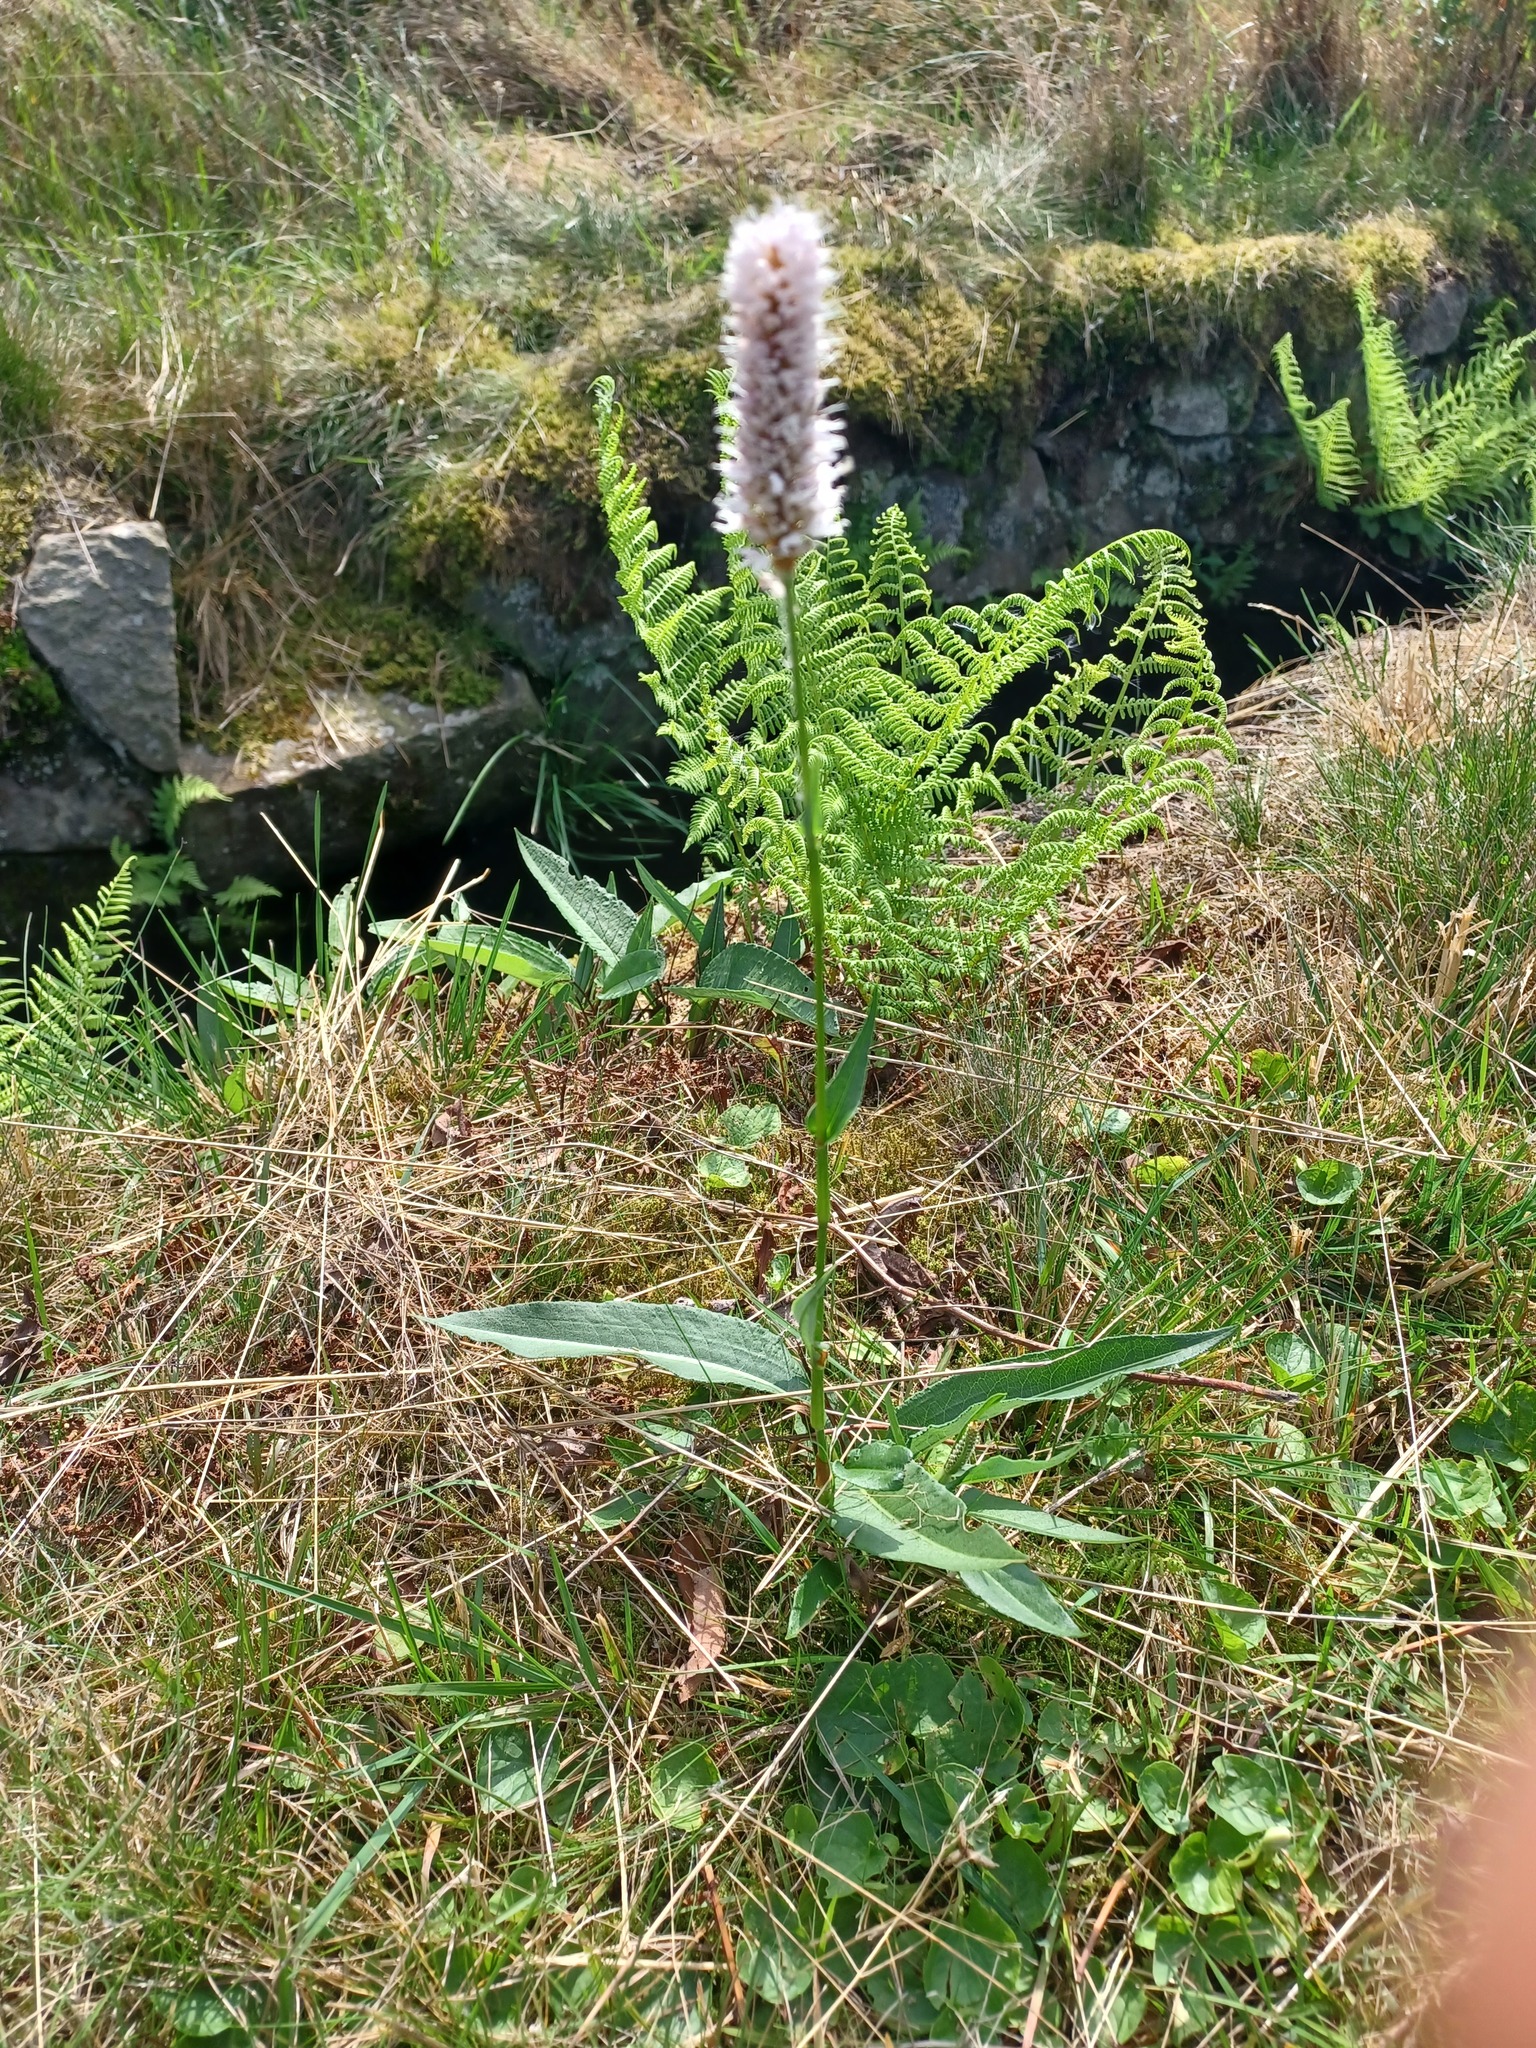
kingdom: Plantae
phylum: Tracheophyta
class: Magnoliopsida
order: Caryophyllales
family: Polygonaceae
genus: Bistorta
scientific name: Bistorta officinalis
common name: Common bistort
